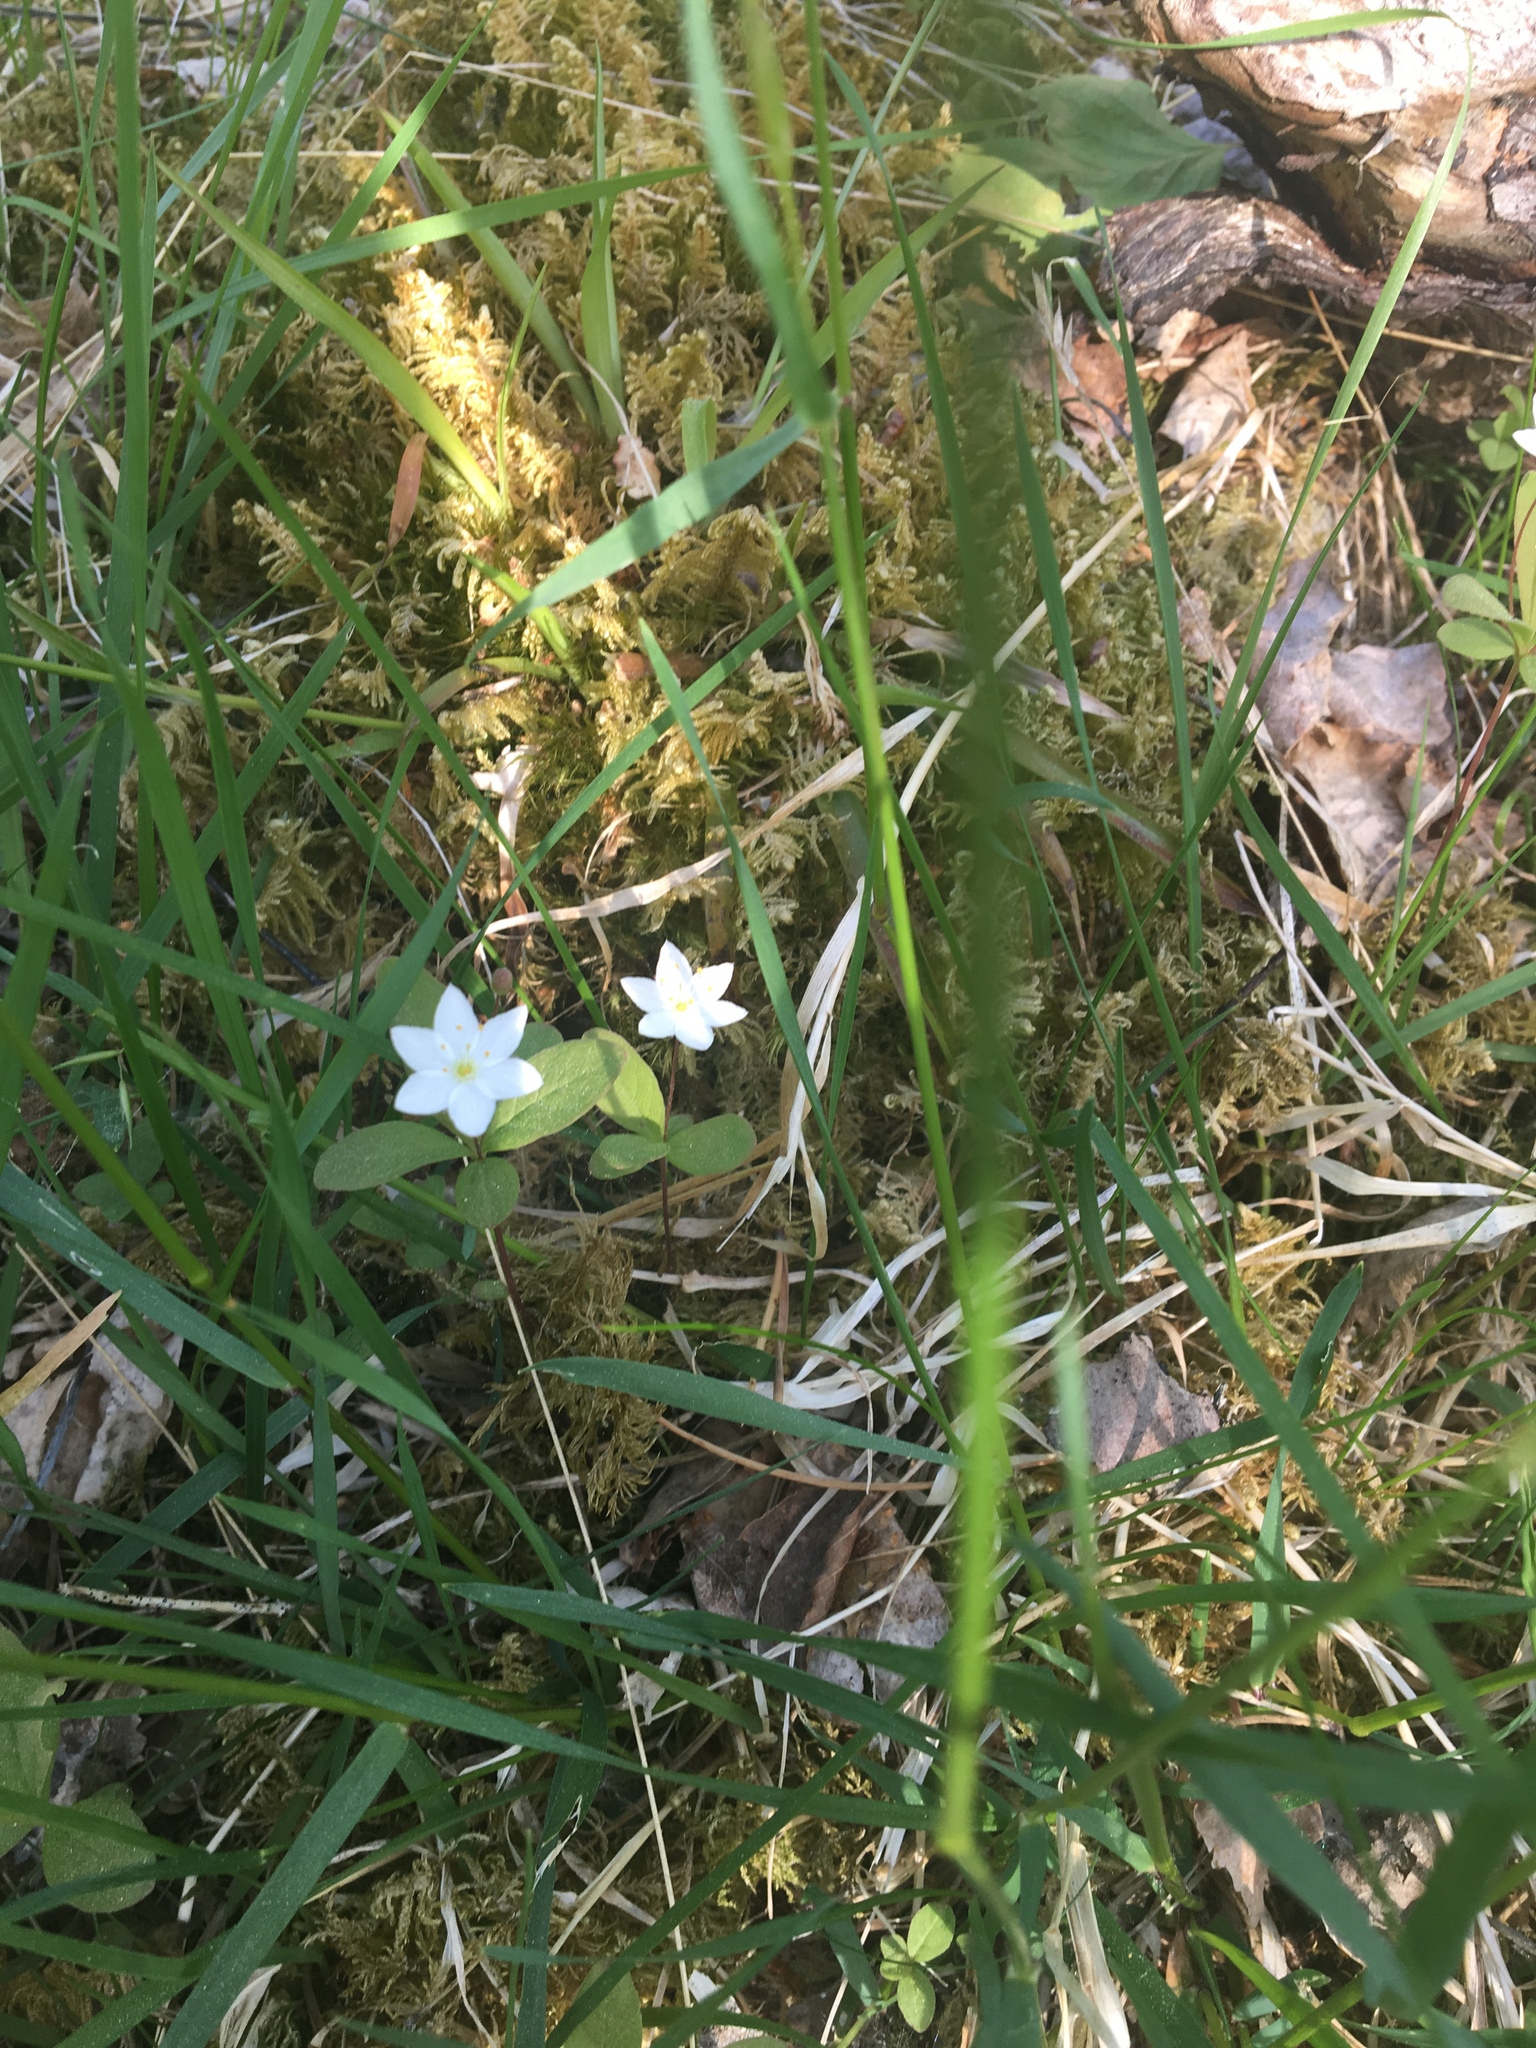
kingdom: Plantae
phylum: Tracheophyta
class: Magnoliopsida
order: Ericales
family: Primulaceae
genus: Lysimachia
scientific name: Lysimachia europaea
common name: Arctic starflower
